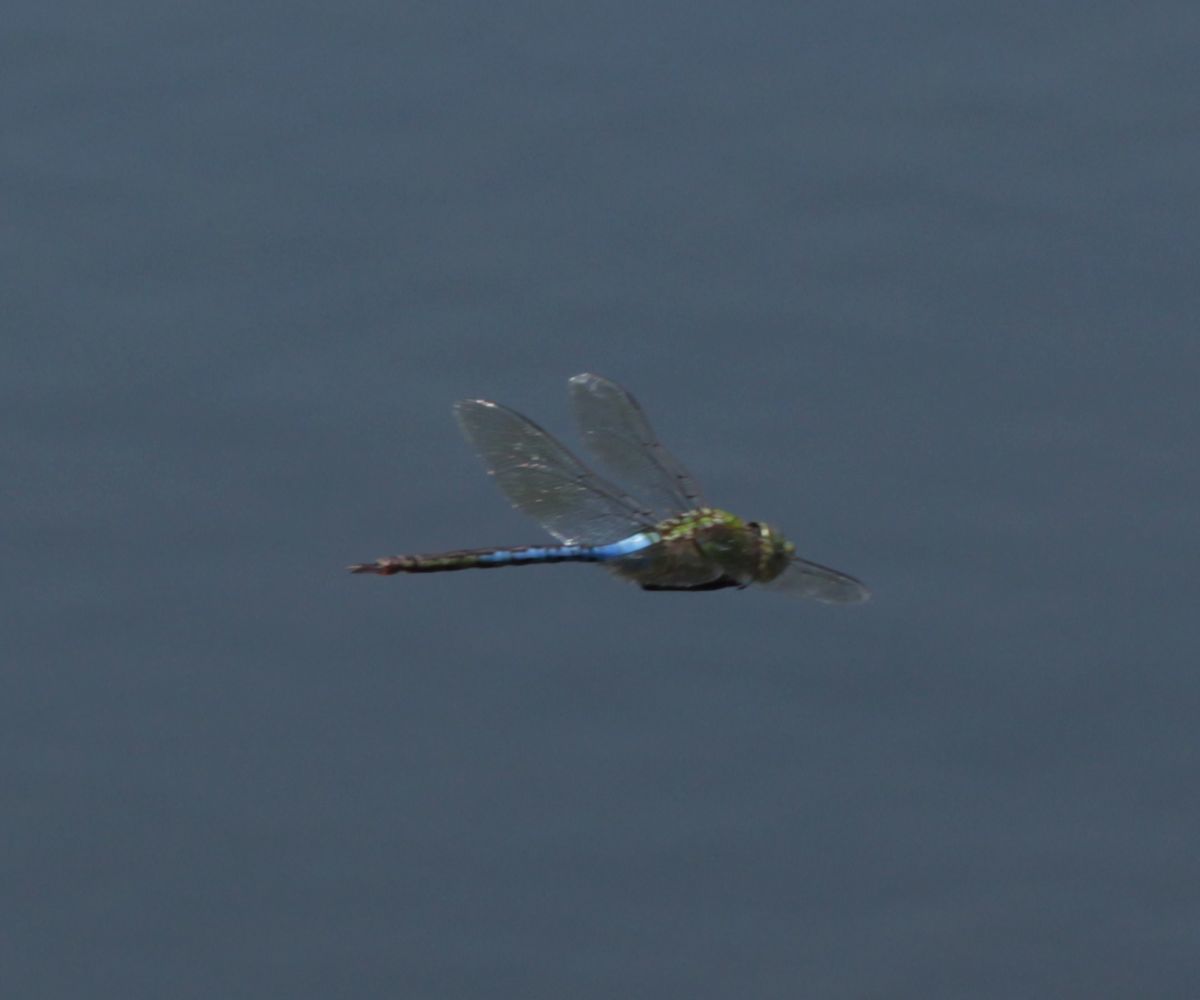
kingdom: Animalia
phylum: Arthropoda
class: Insecta
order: Odonata
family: Aeshnidae
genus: Anax
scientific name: Anax junius
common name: Common green darner
